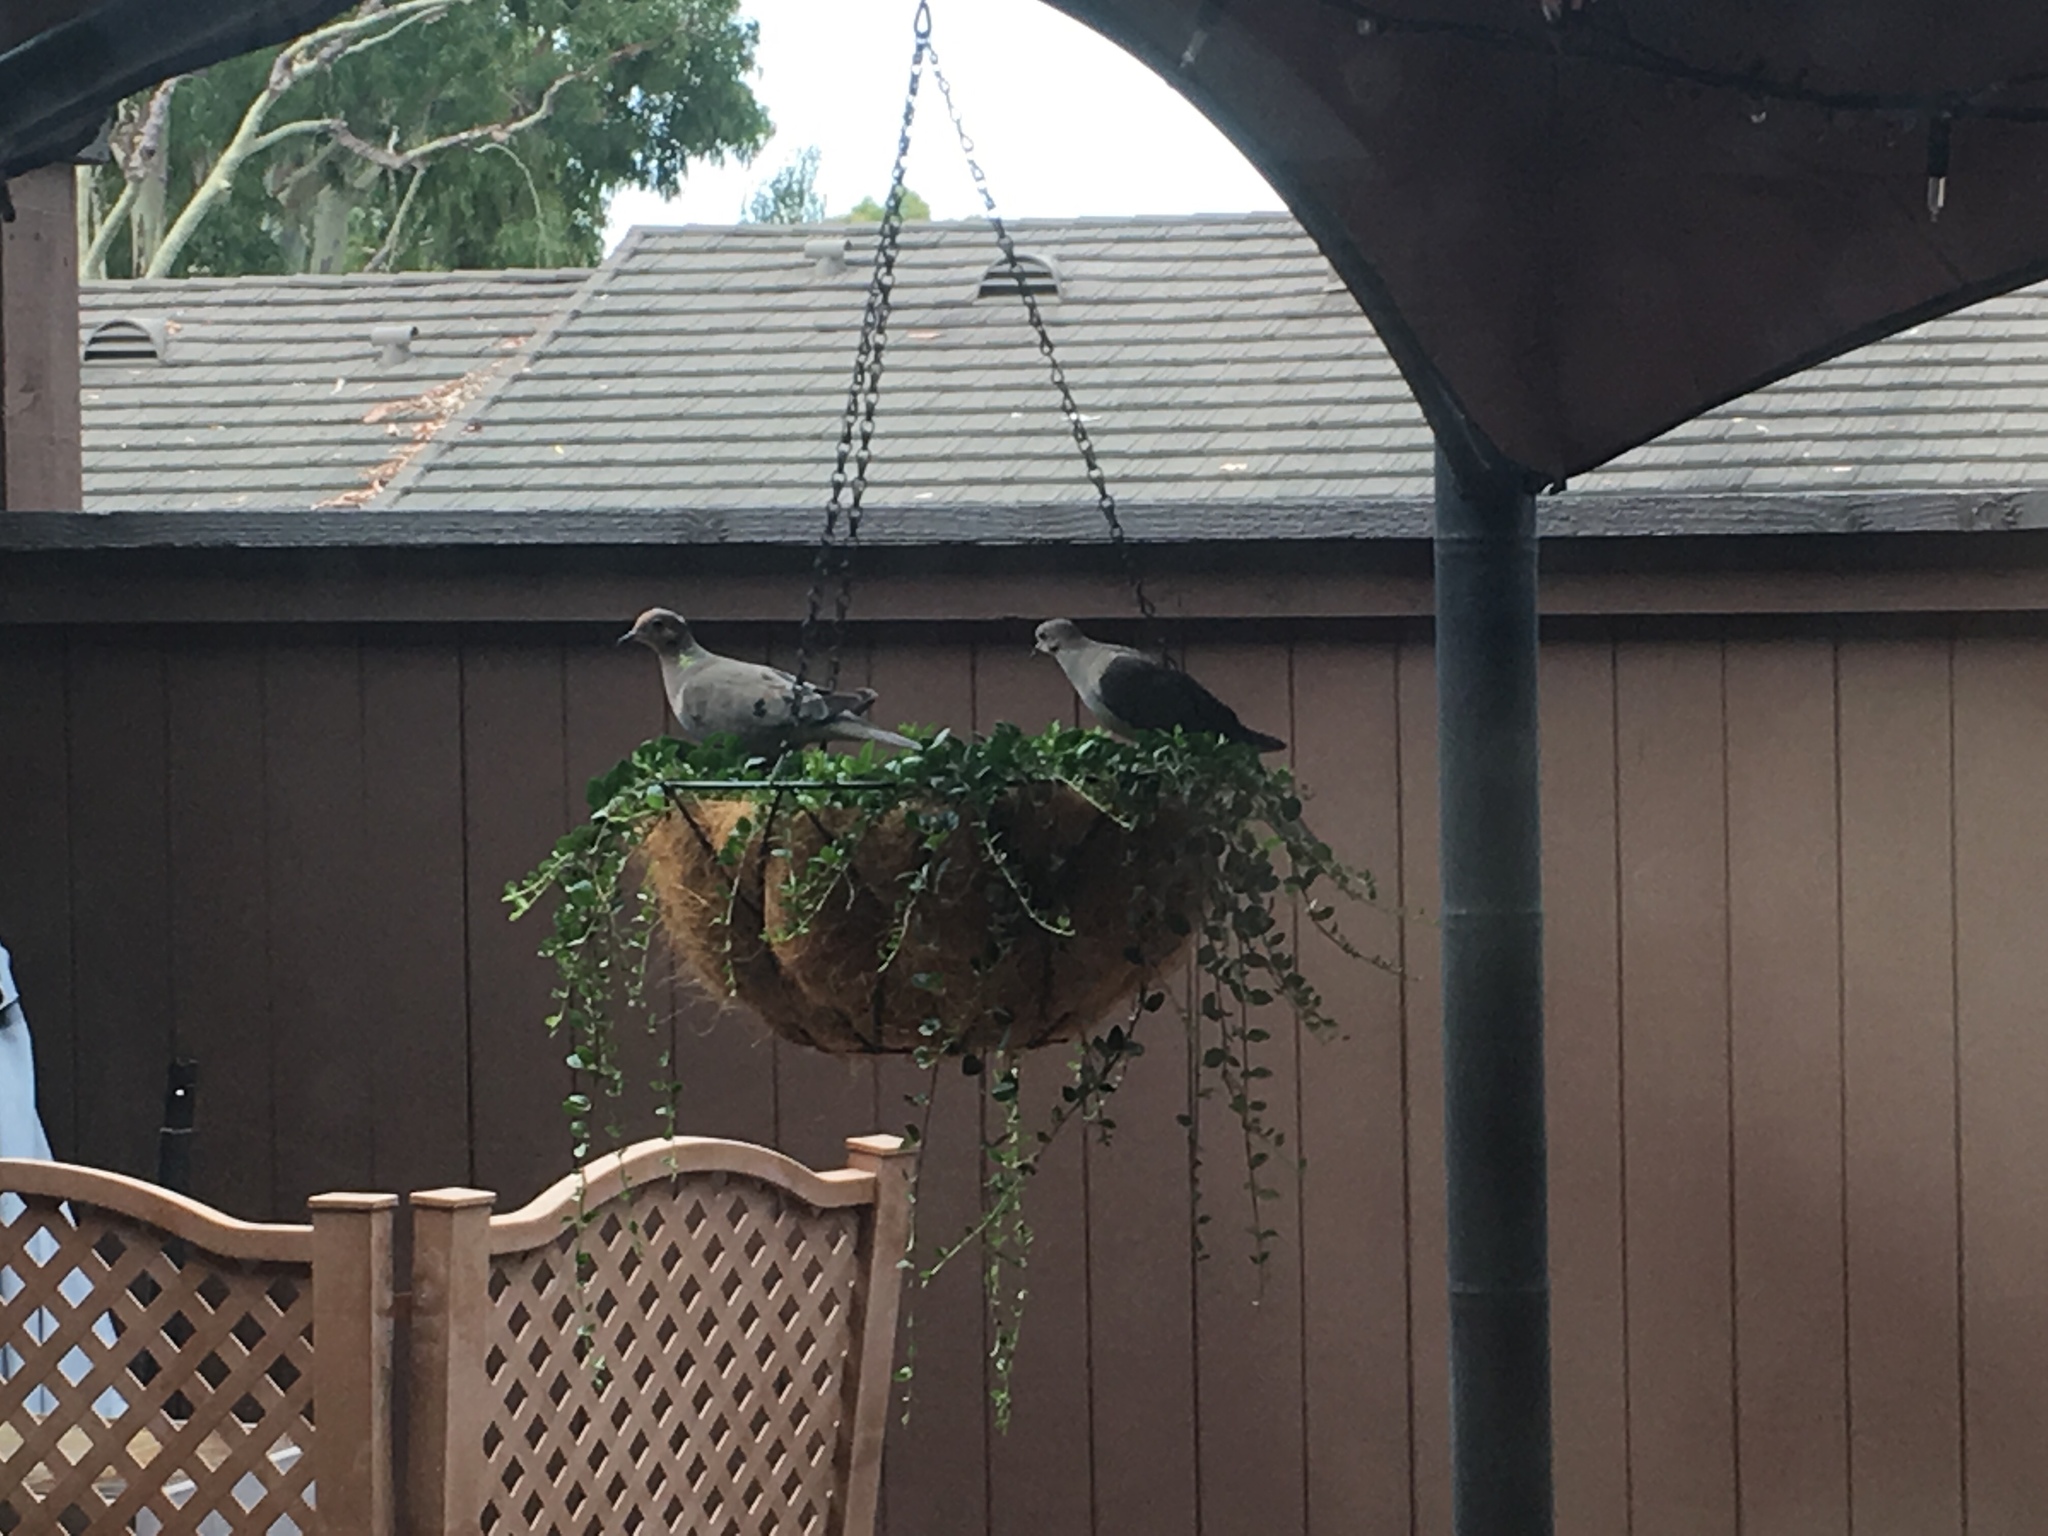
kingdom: Animalia
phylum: Chordata
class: Aves
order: Columbiformes
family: Columbidae
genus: Zenaida
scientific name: Zenaida macroura
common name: Mourning dove
